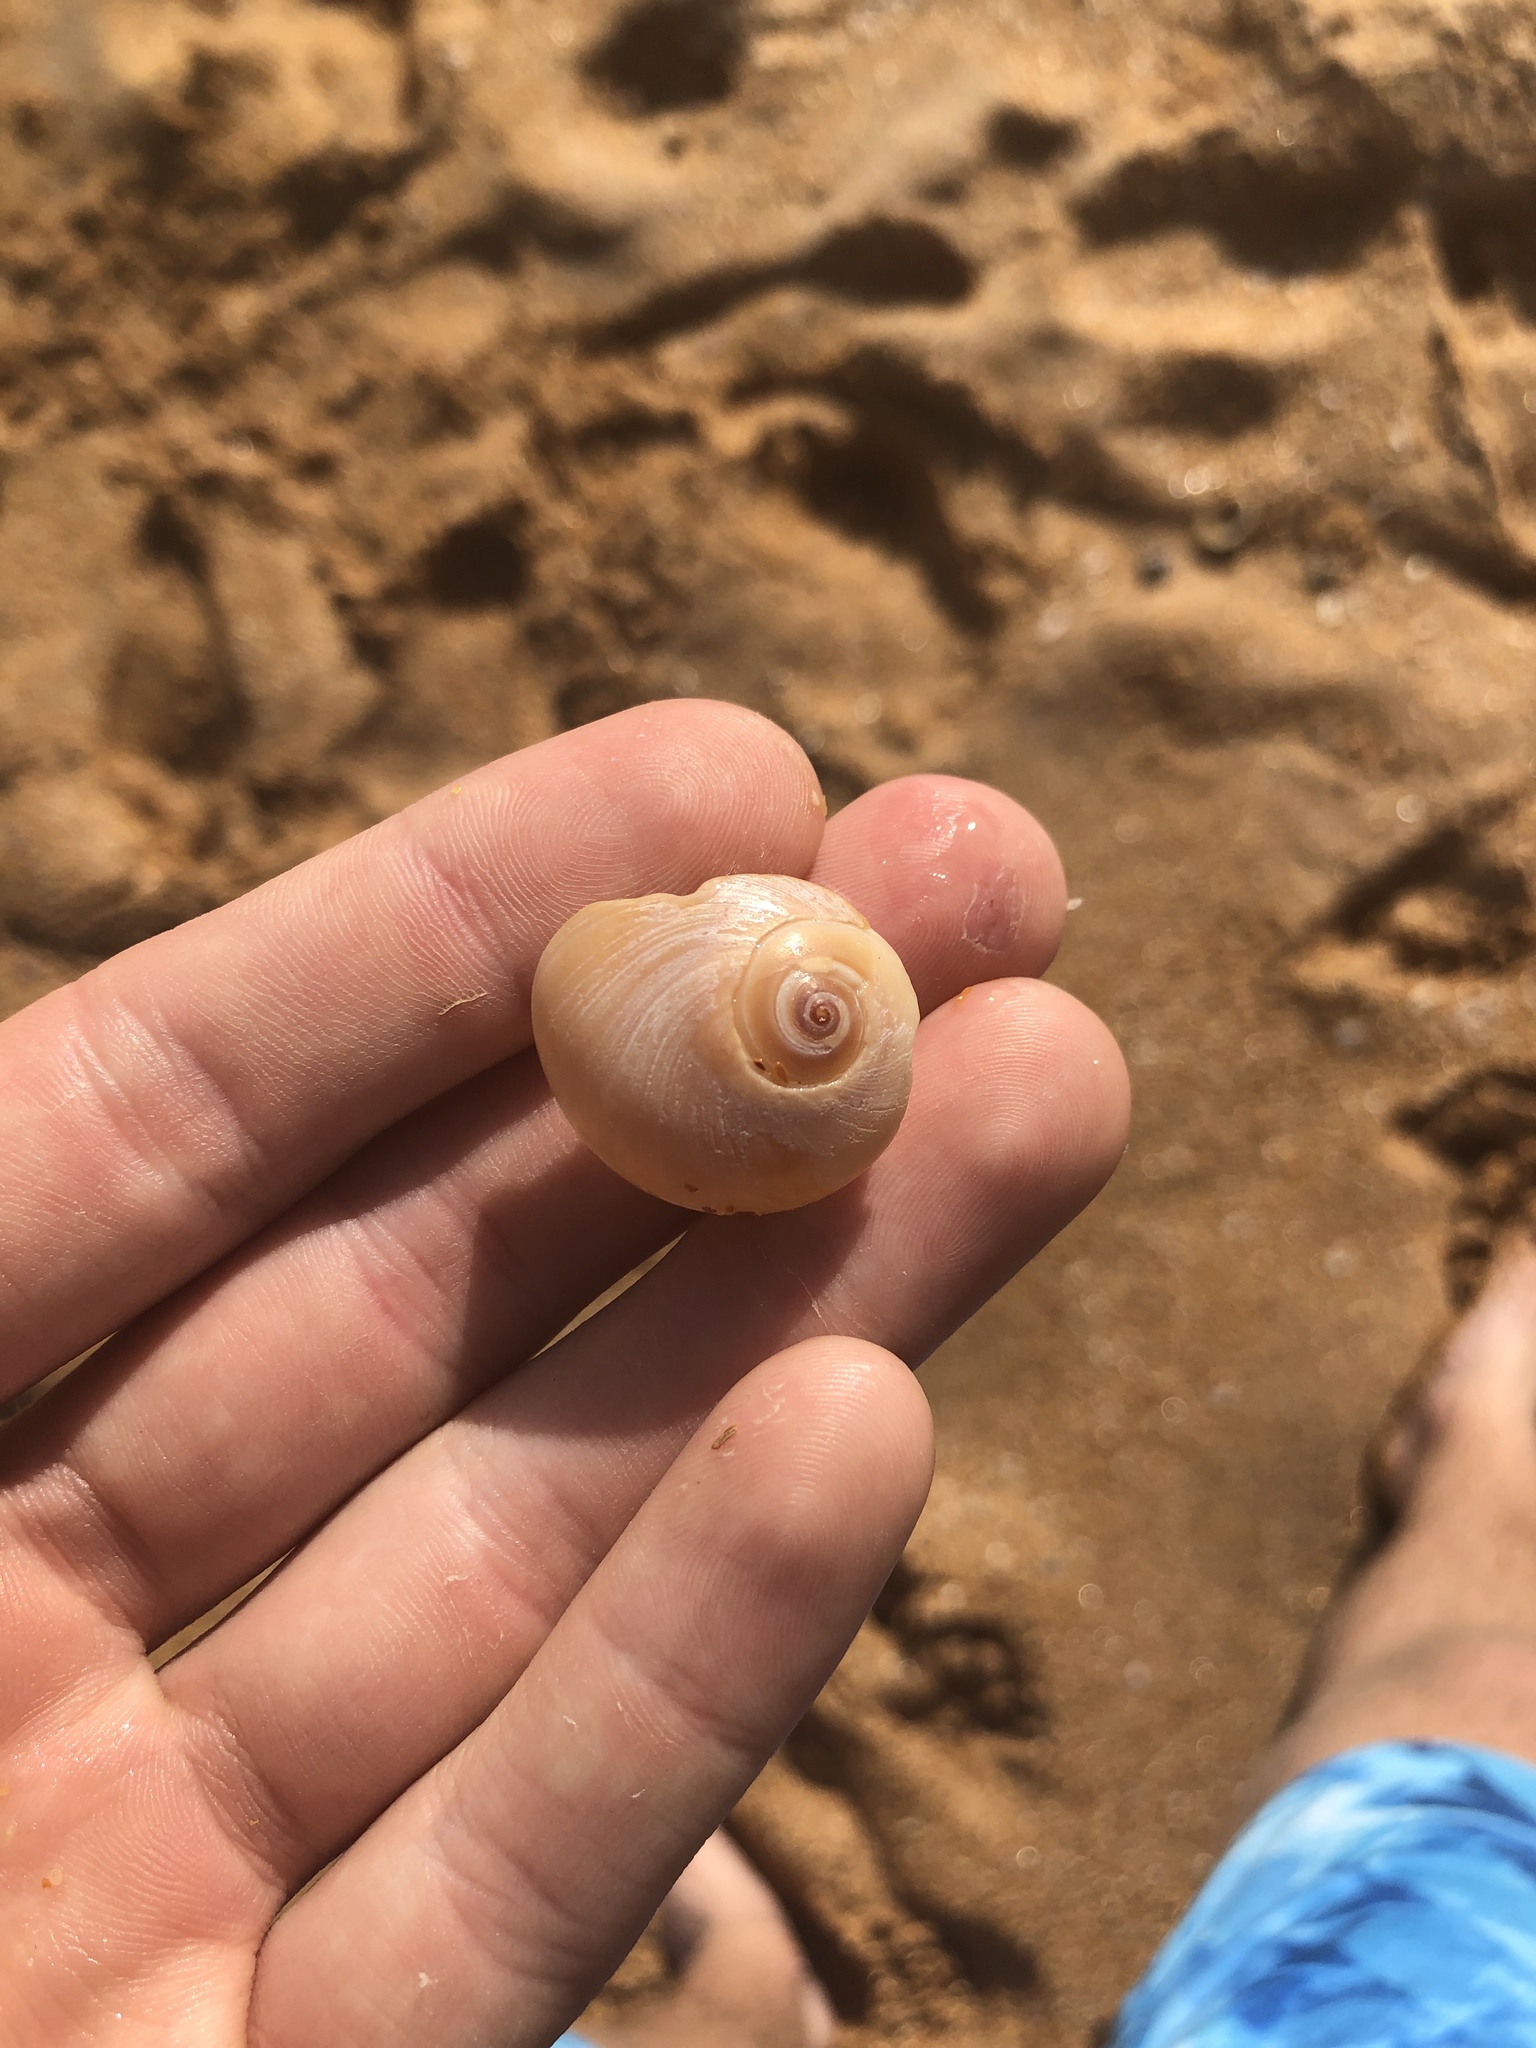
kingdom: Animalia
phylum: Mollusca
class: Gastropoda
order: Littorinimorpha
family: Naticidae
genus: Neverita
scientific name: Neverita duplicata
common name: Lobed moonsnail
